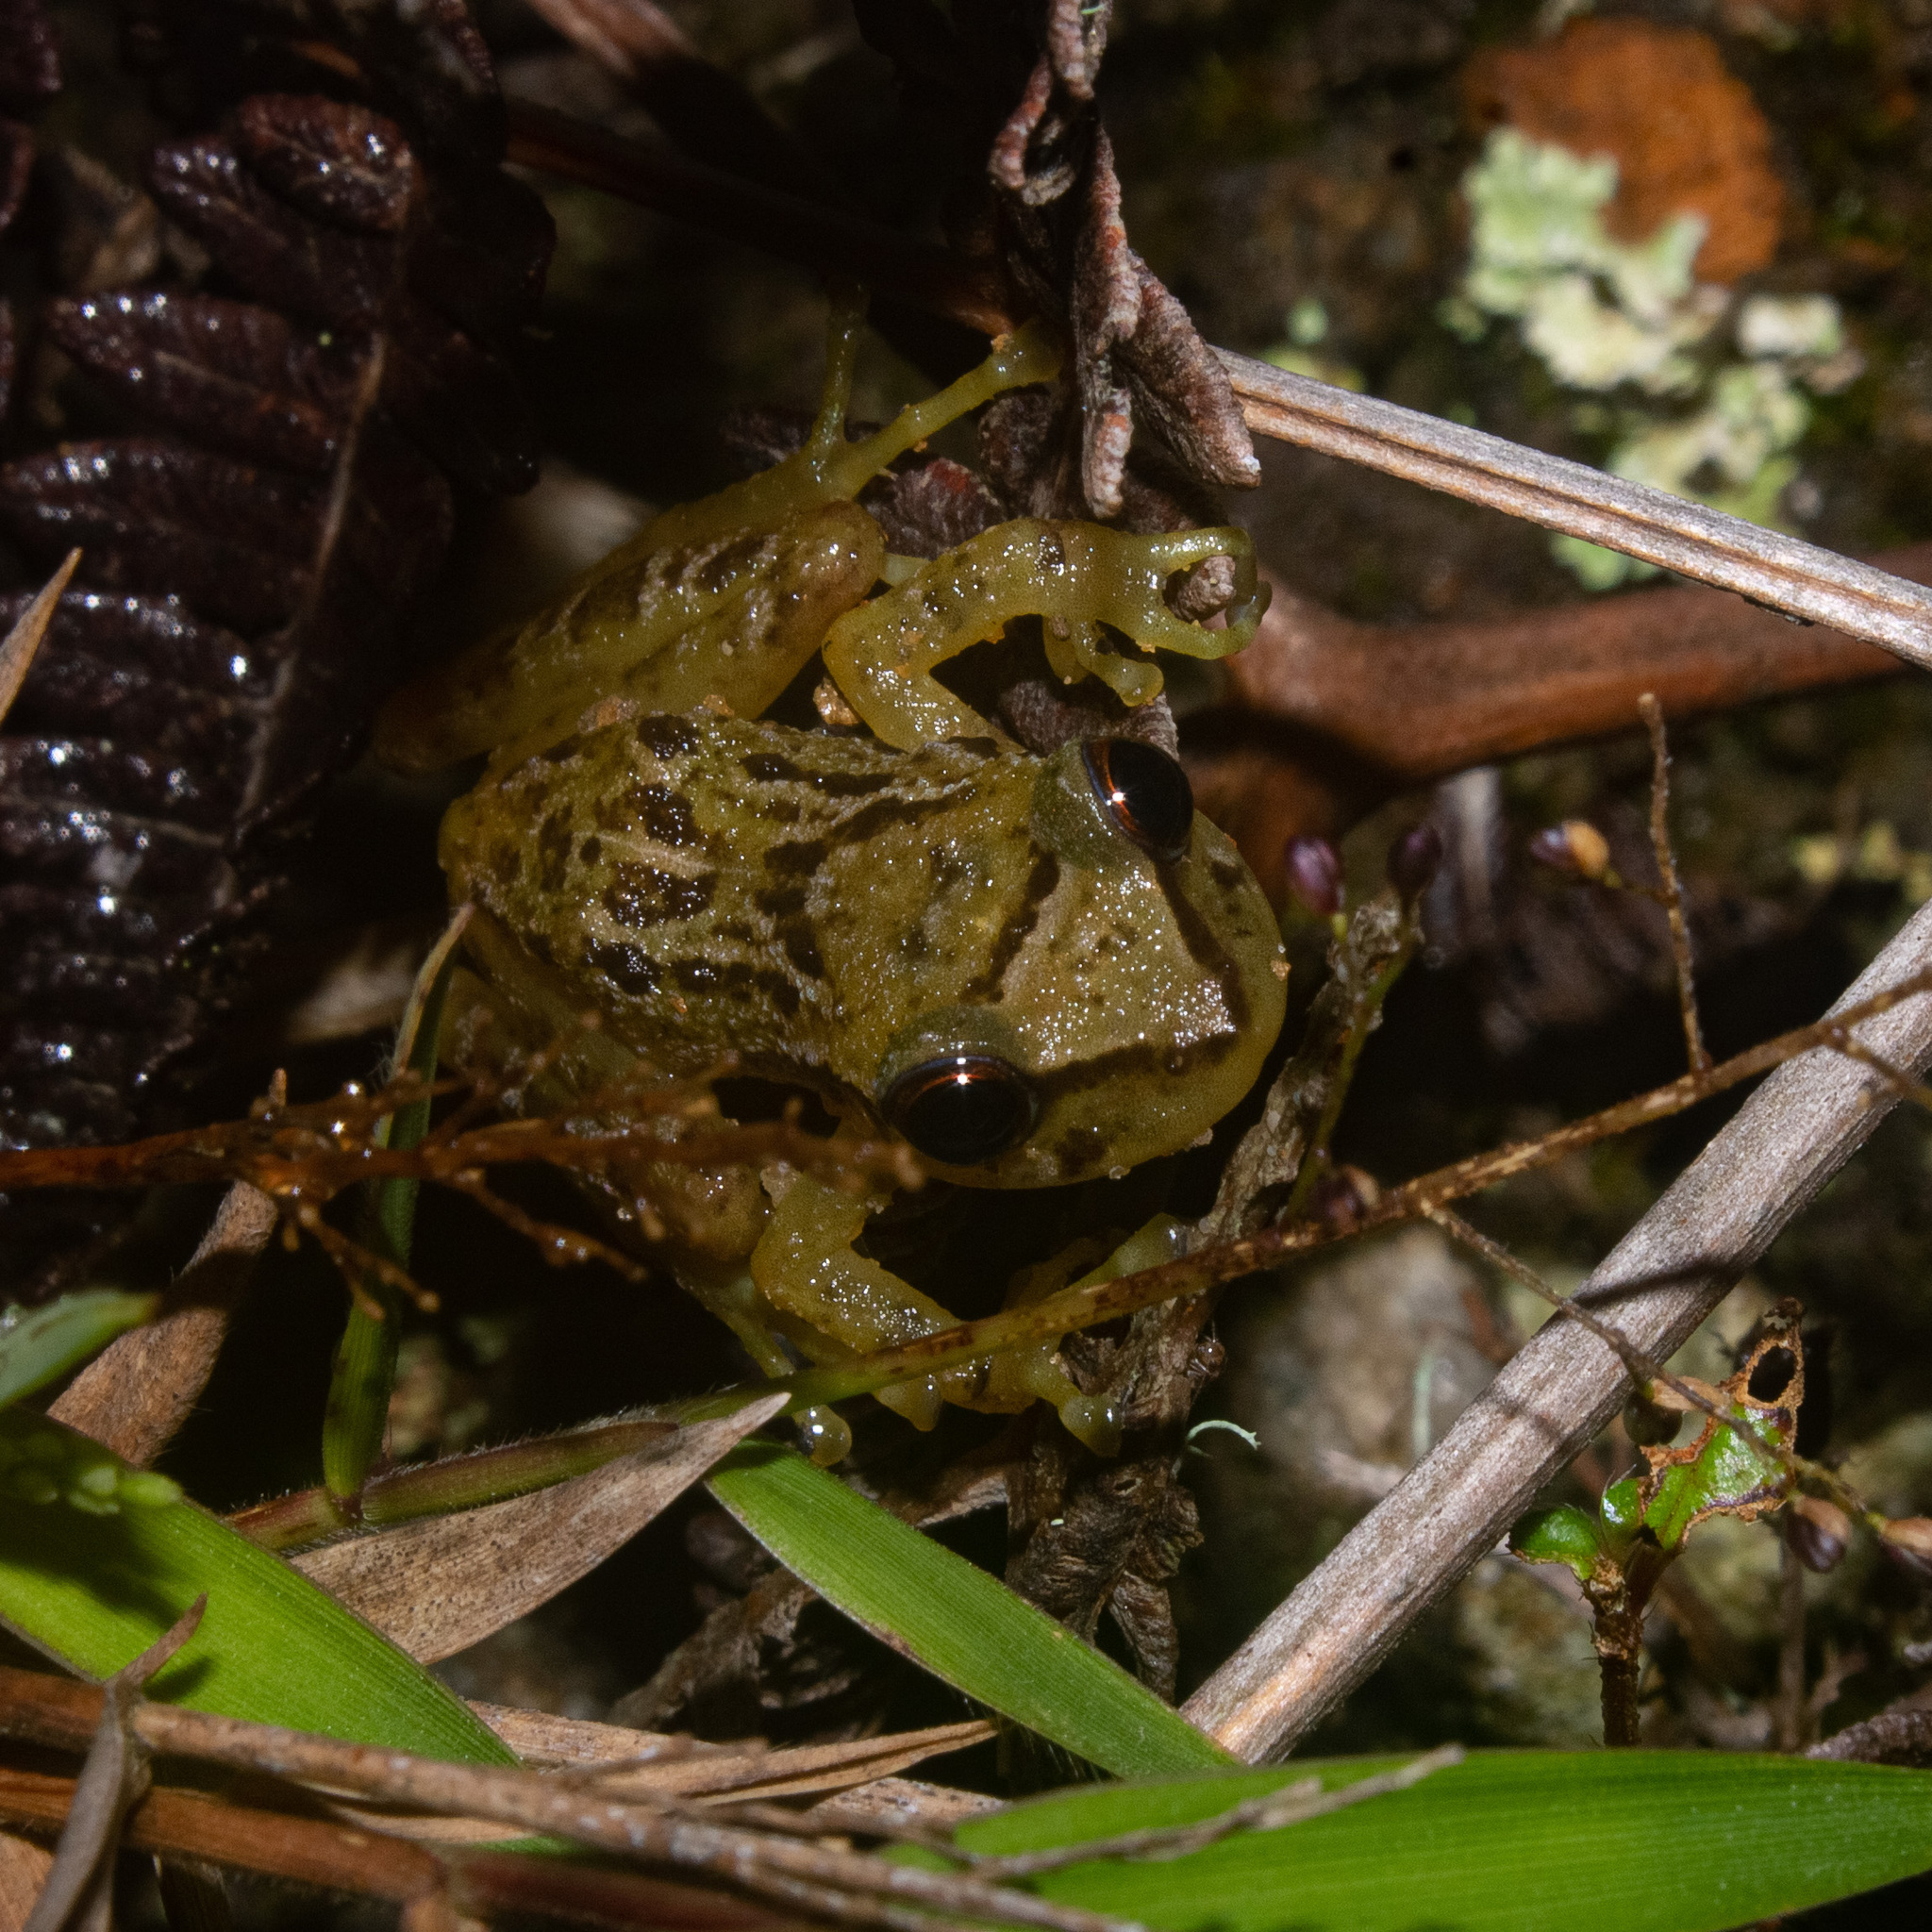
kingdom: Animalia
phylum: Chordata
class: Amphibia
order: Anura
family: Craugastoridae
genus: Tachiramantis
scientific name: Tachiramantis
